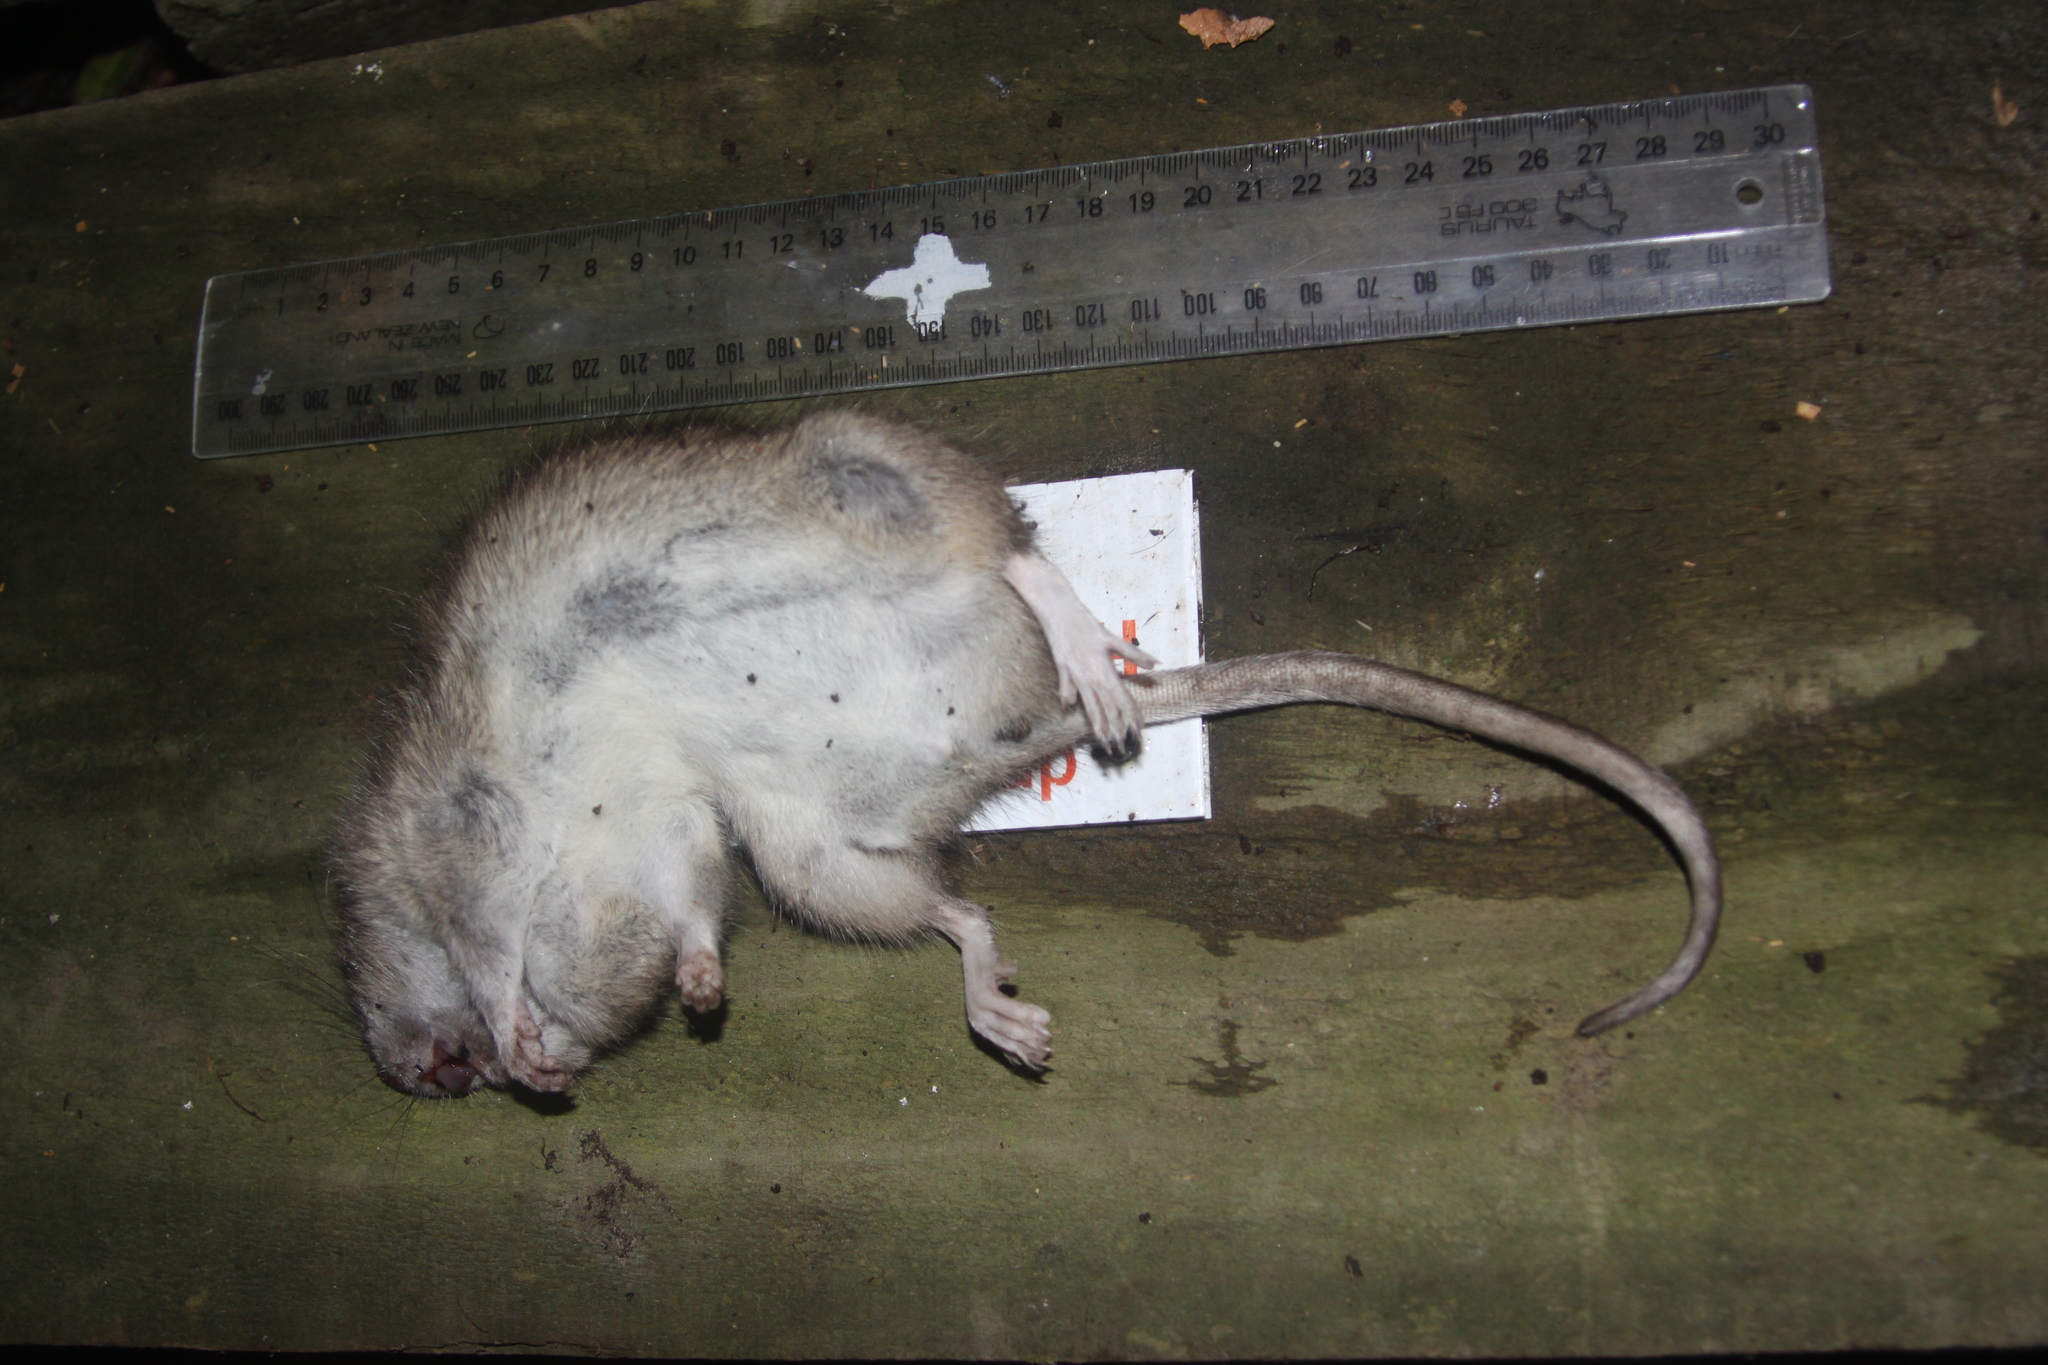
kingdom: Animalia
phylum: Chordata
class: Mammalia
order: Rodentia
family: Muridae
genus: Rattus
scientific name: Rattus norvegicus
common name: Brown rat
